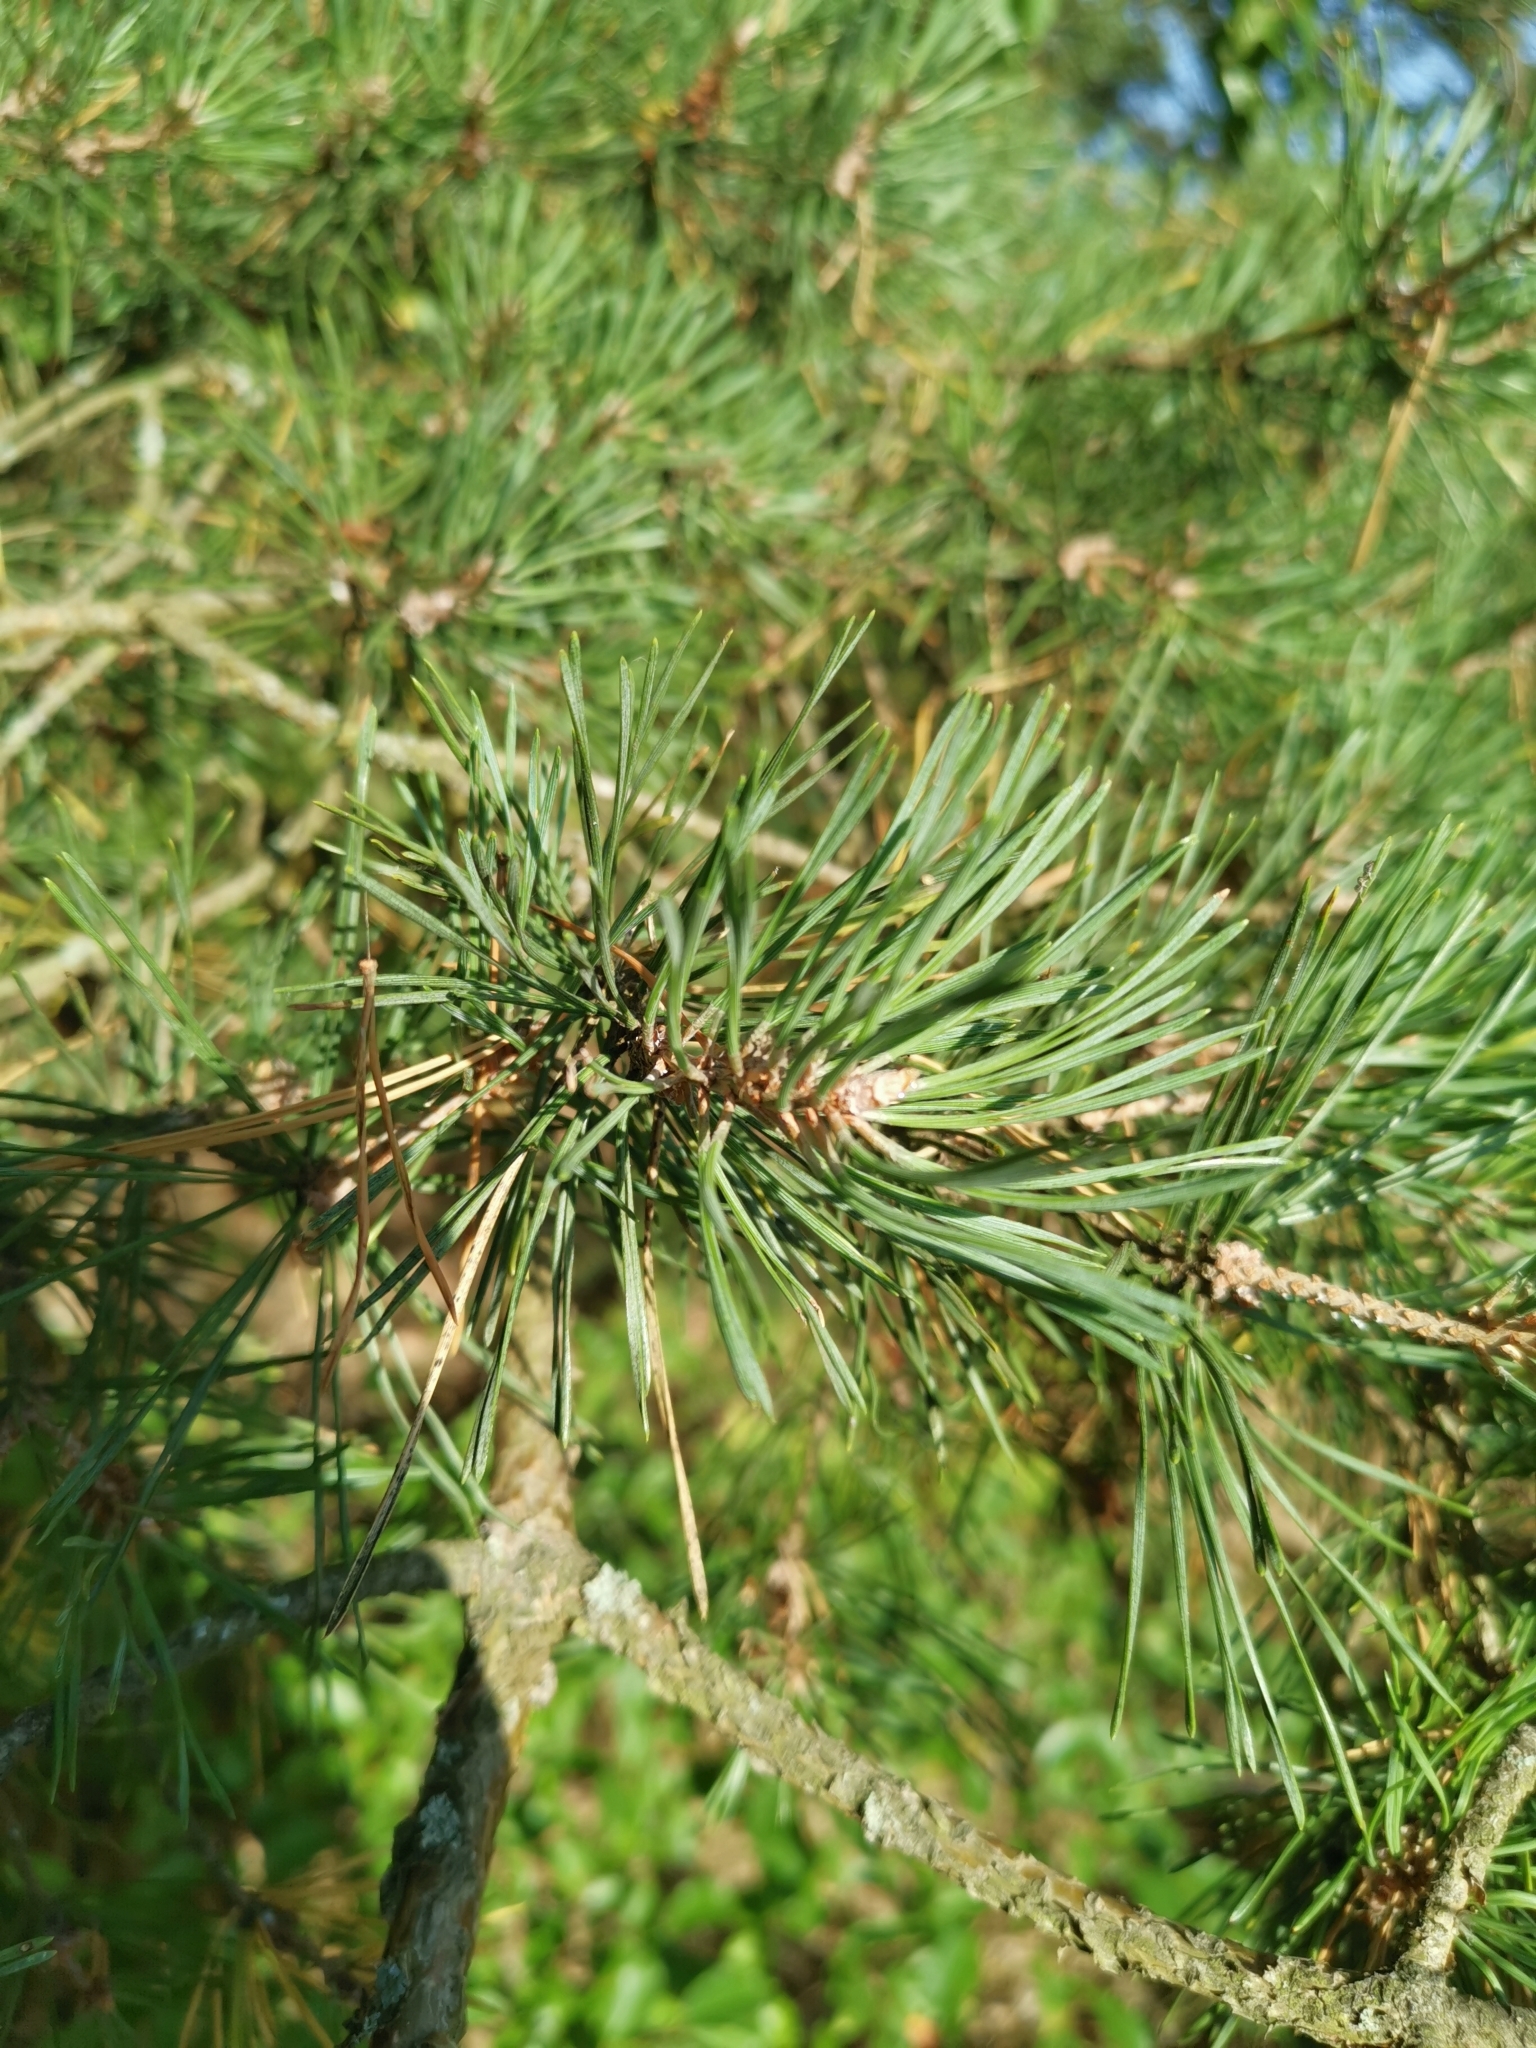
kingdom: Plantae
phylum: Tracheophyta
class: Pinopsida
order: Pinales
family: Pinaceae
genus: Pinus
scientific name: Pinus sylvestris
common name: Scots pine
